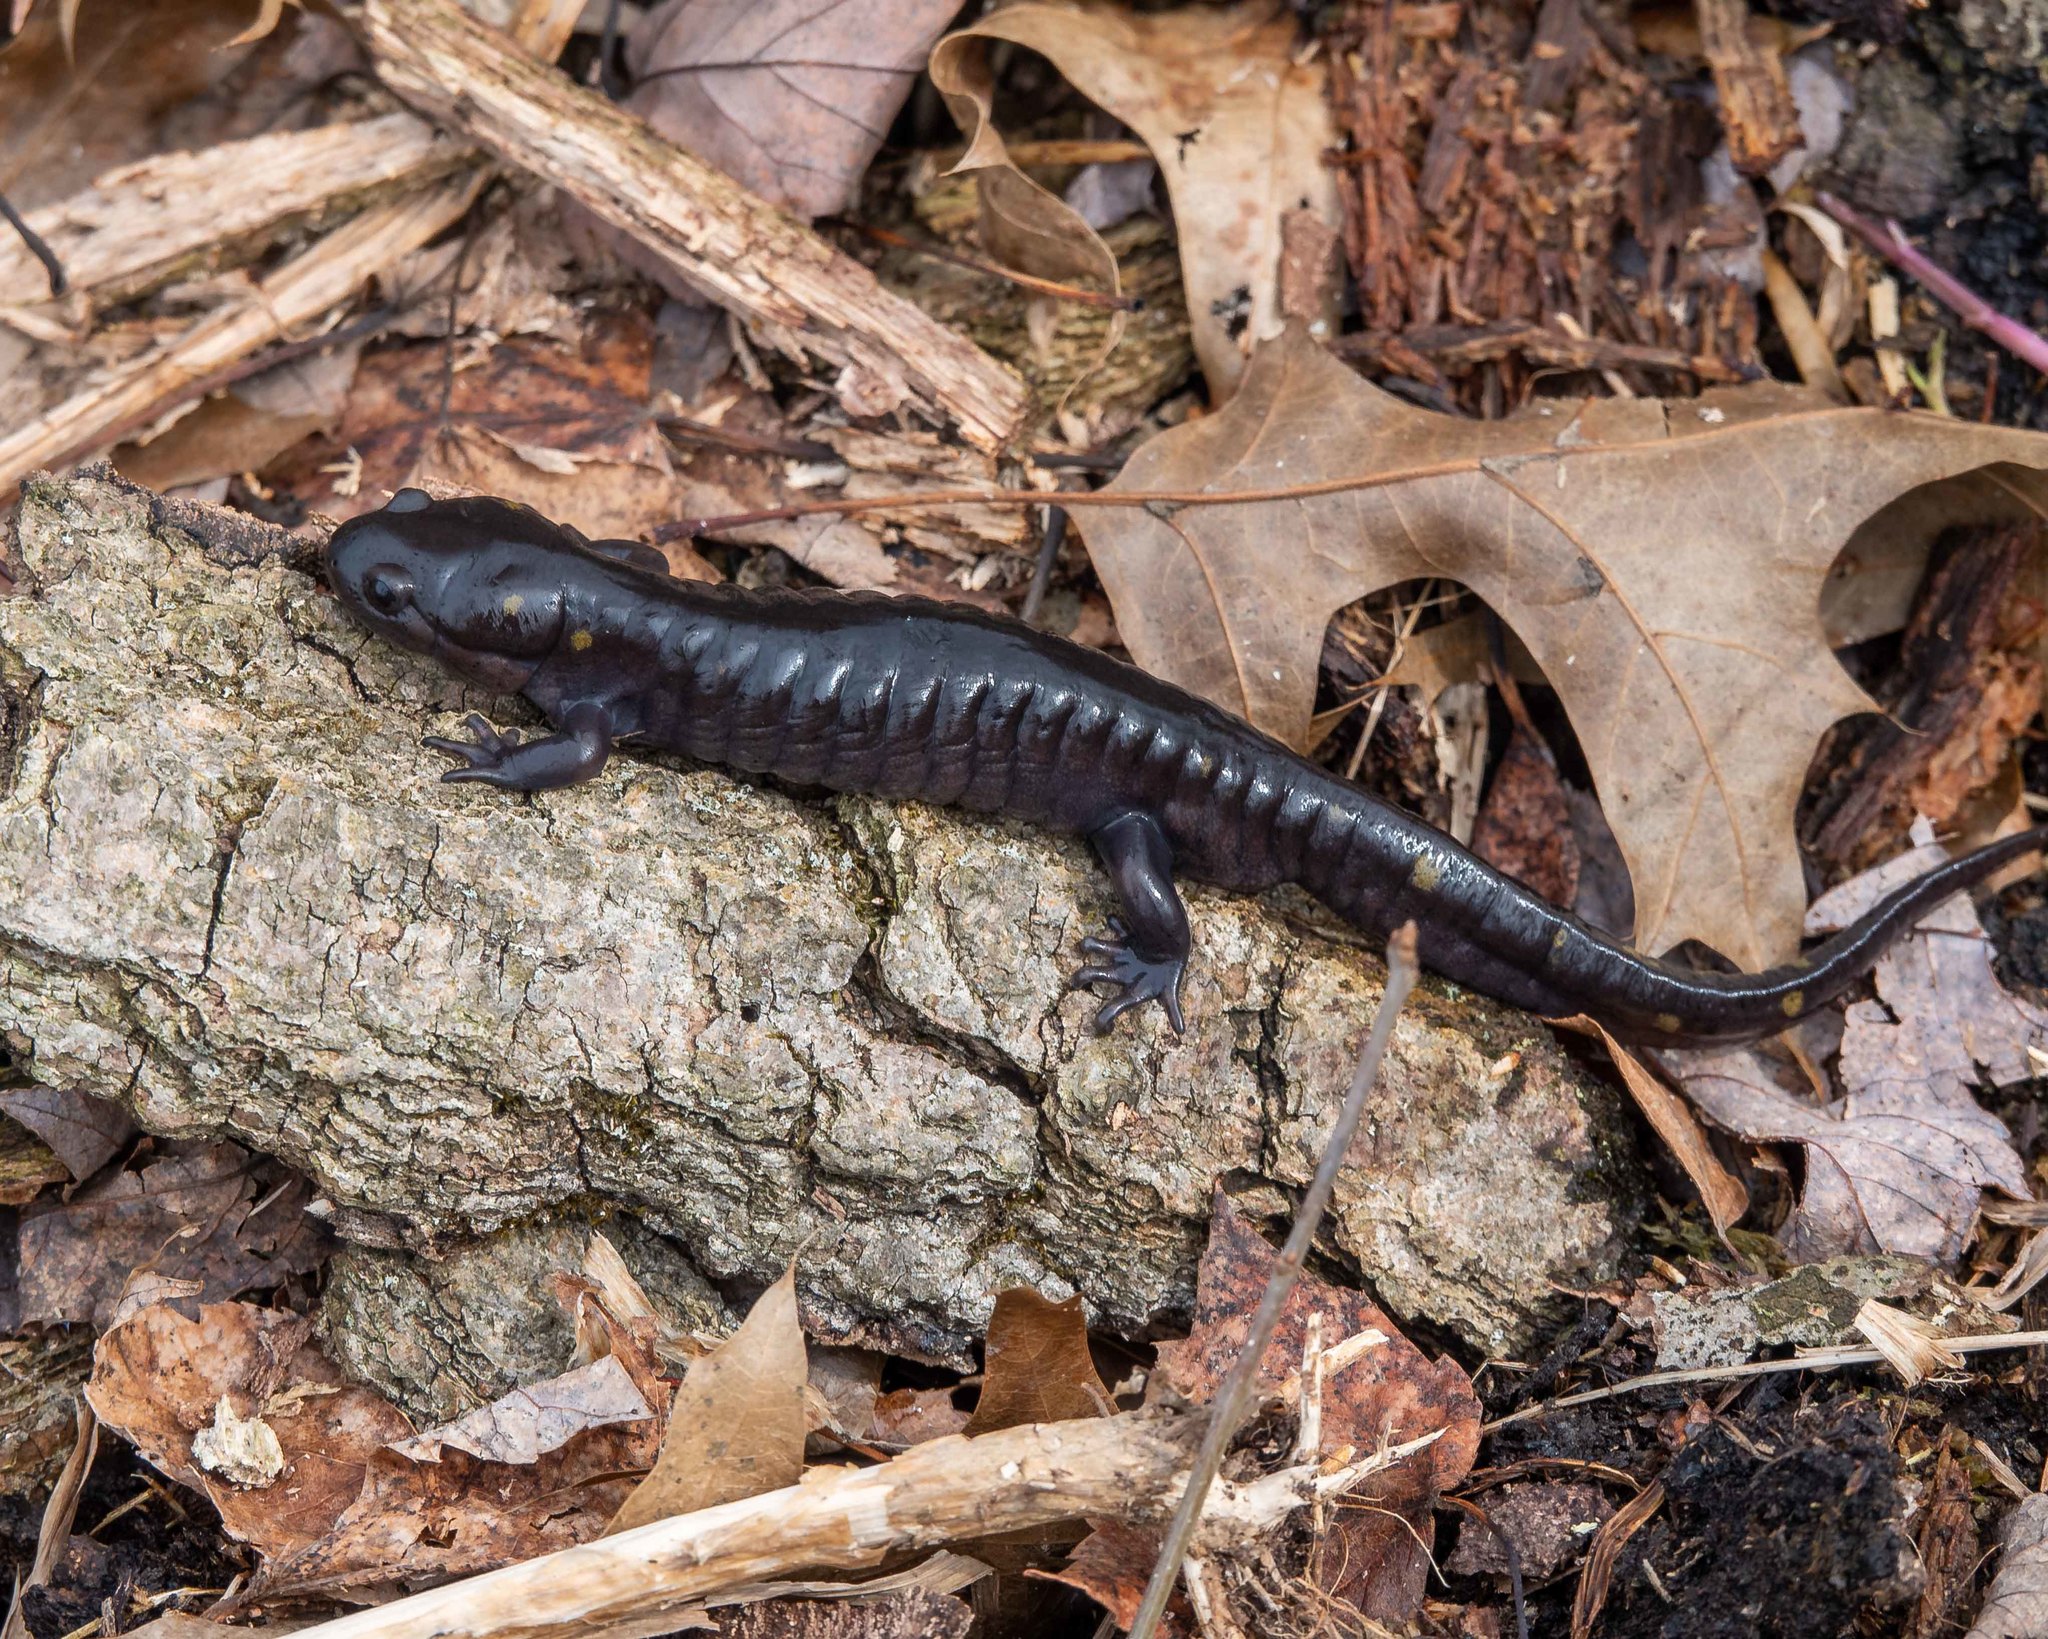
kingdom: Animalia
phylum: Chordata
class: Amphibia
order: Caudata
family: Ambystomatidae
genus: Ambystoma
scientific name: Ambystoma maculatum
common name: Spotted salamander
